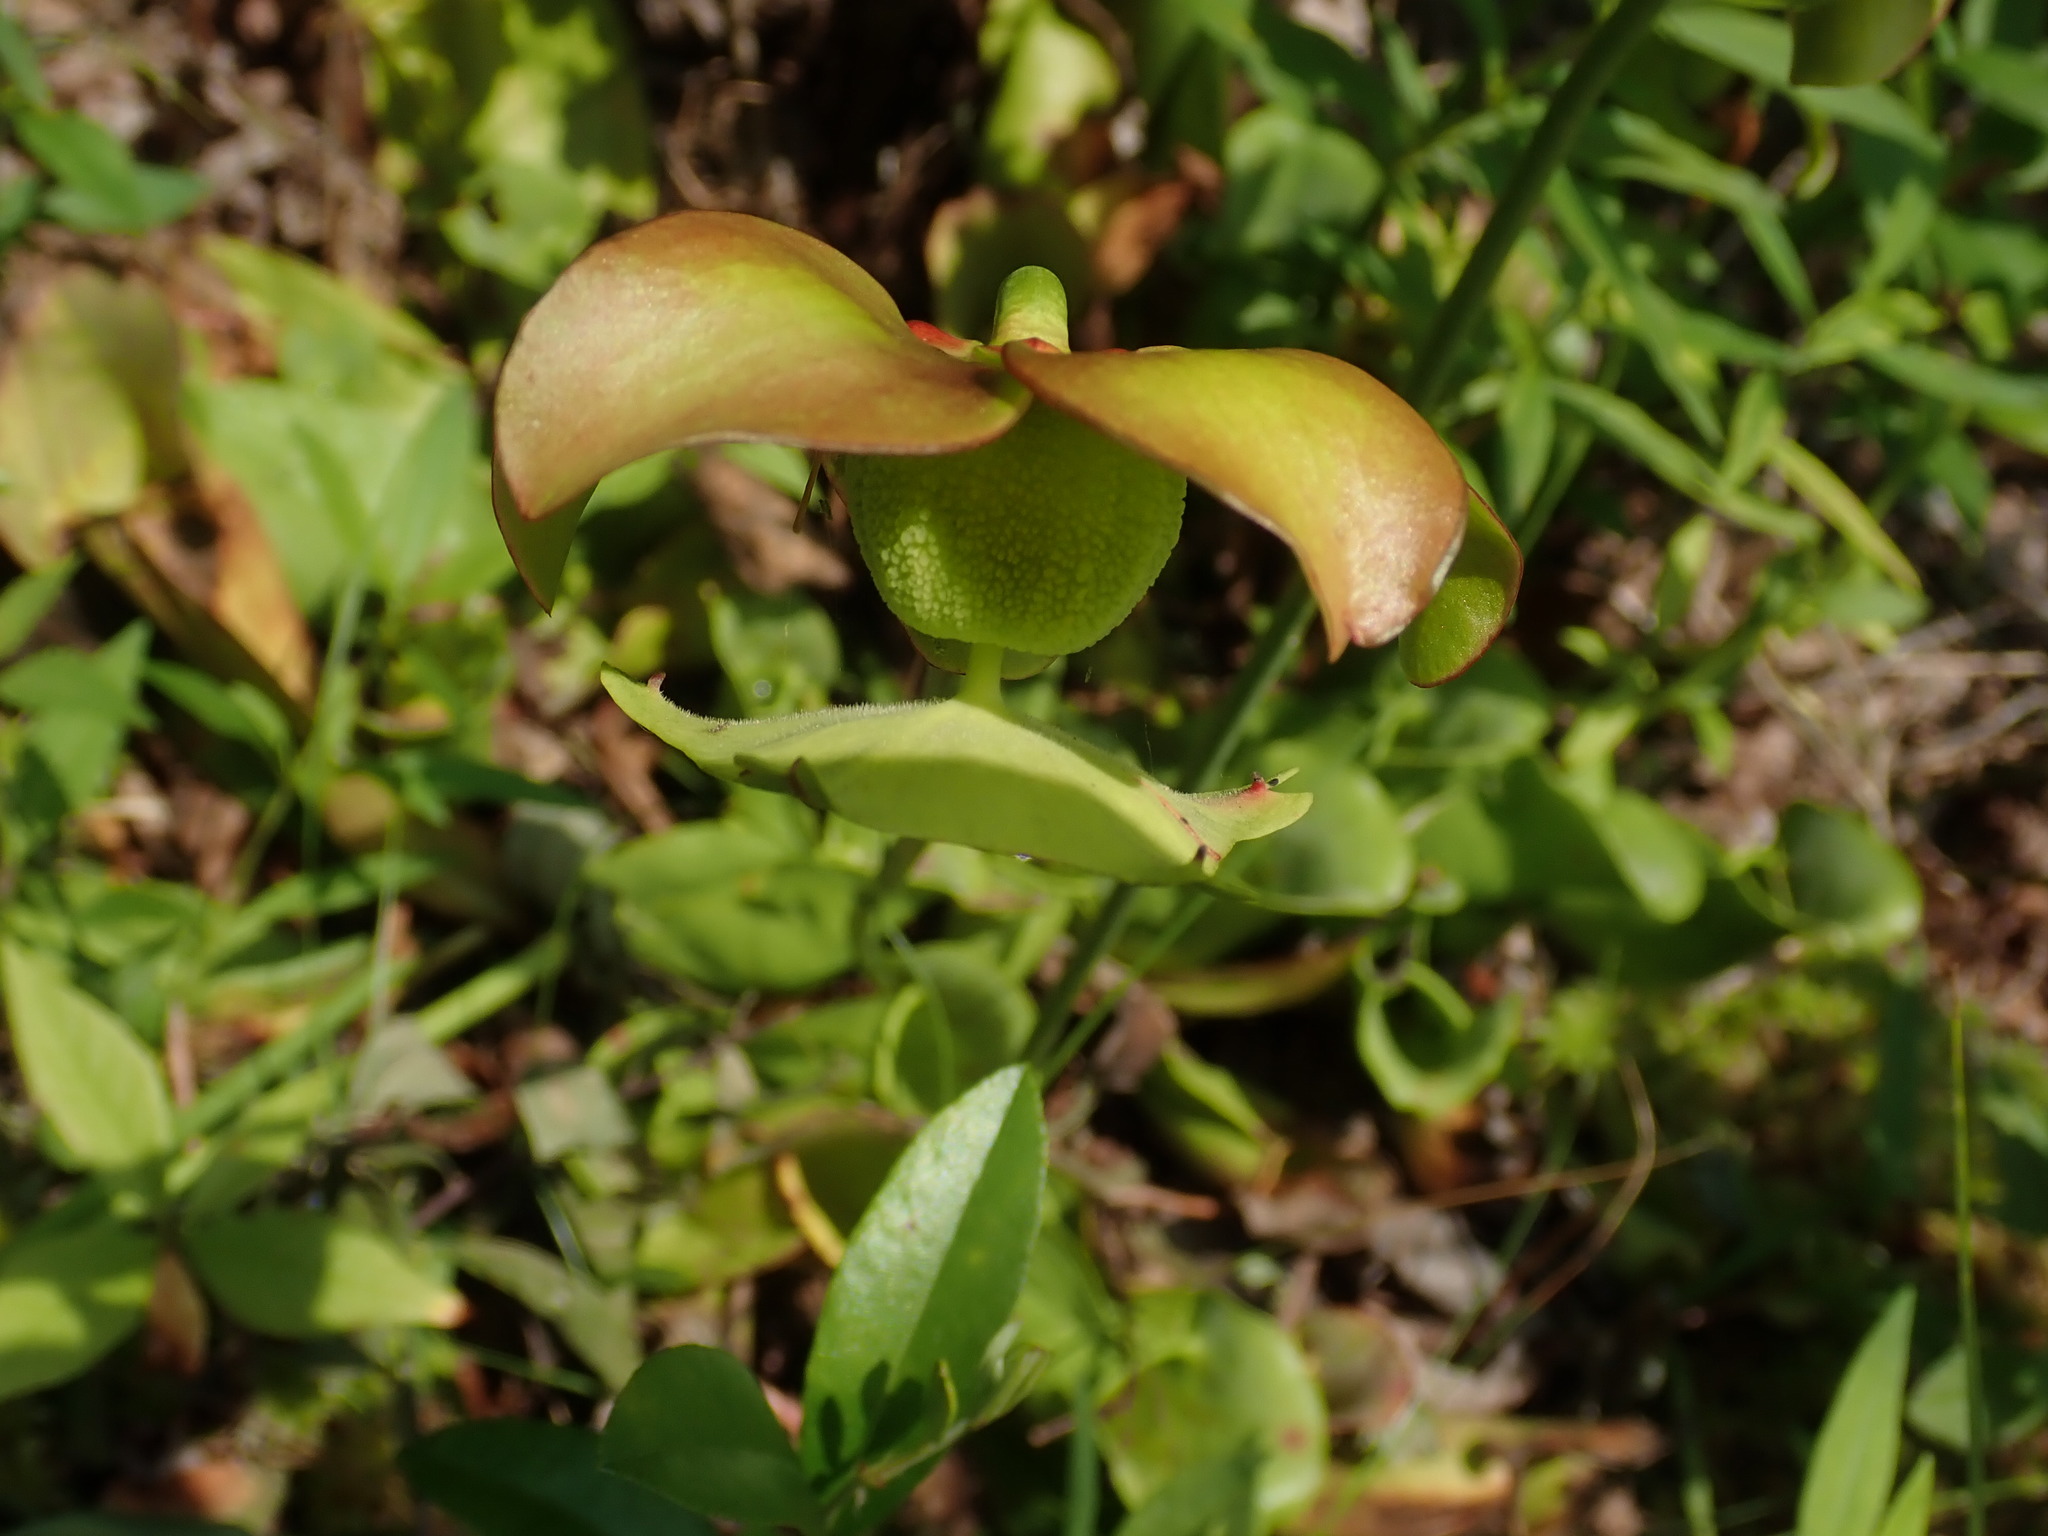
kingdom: Plantae
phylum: Tracheophyta
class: Magnoliopsida
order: Ericales
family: Sarraceniaceae
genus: Sarracenia
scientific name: Sarracenia purpurea
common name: Pitcherplant
